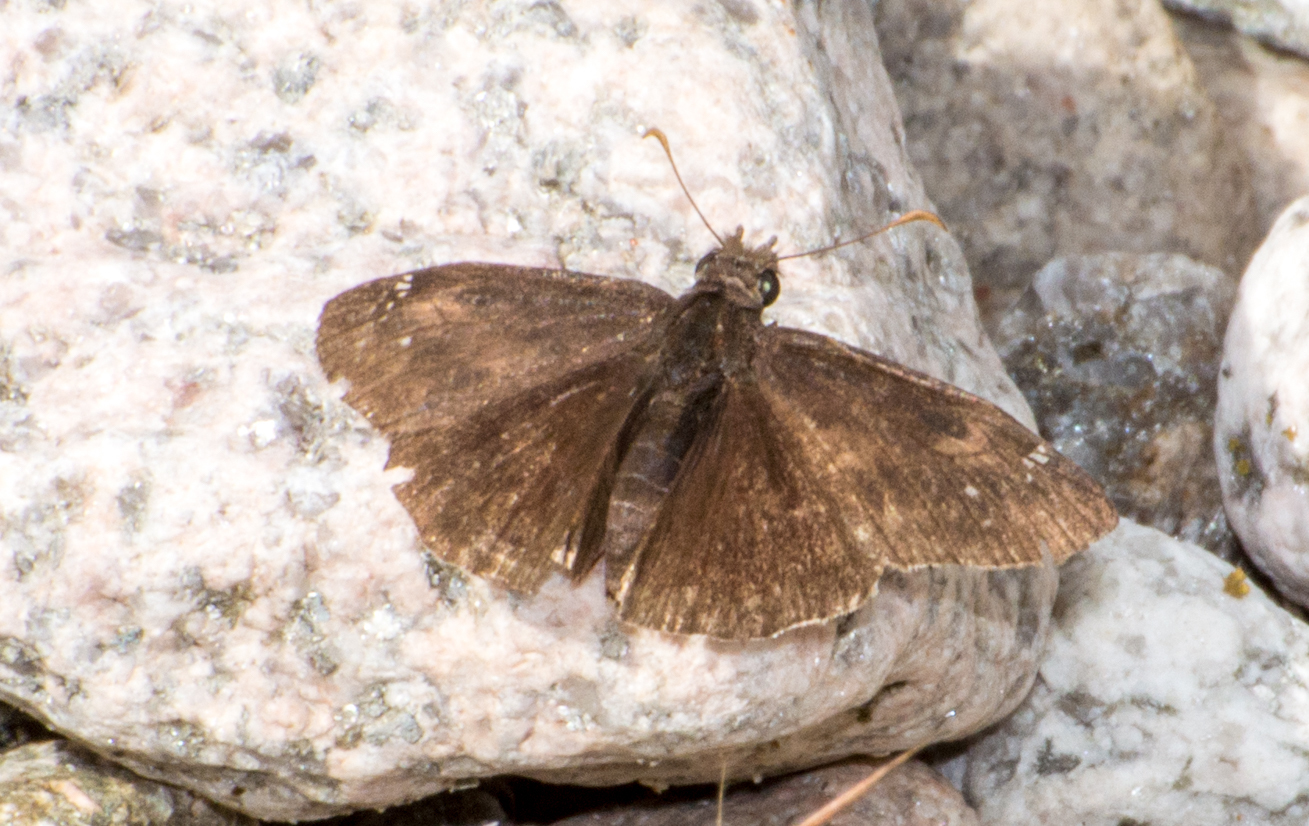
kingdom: Animalia
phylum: Arthropoda
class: Insecta
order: Lepidoptera
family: Hesperiidae
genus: Erynnis
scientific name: Erynnis funeralis
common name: Funereal duskywing
